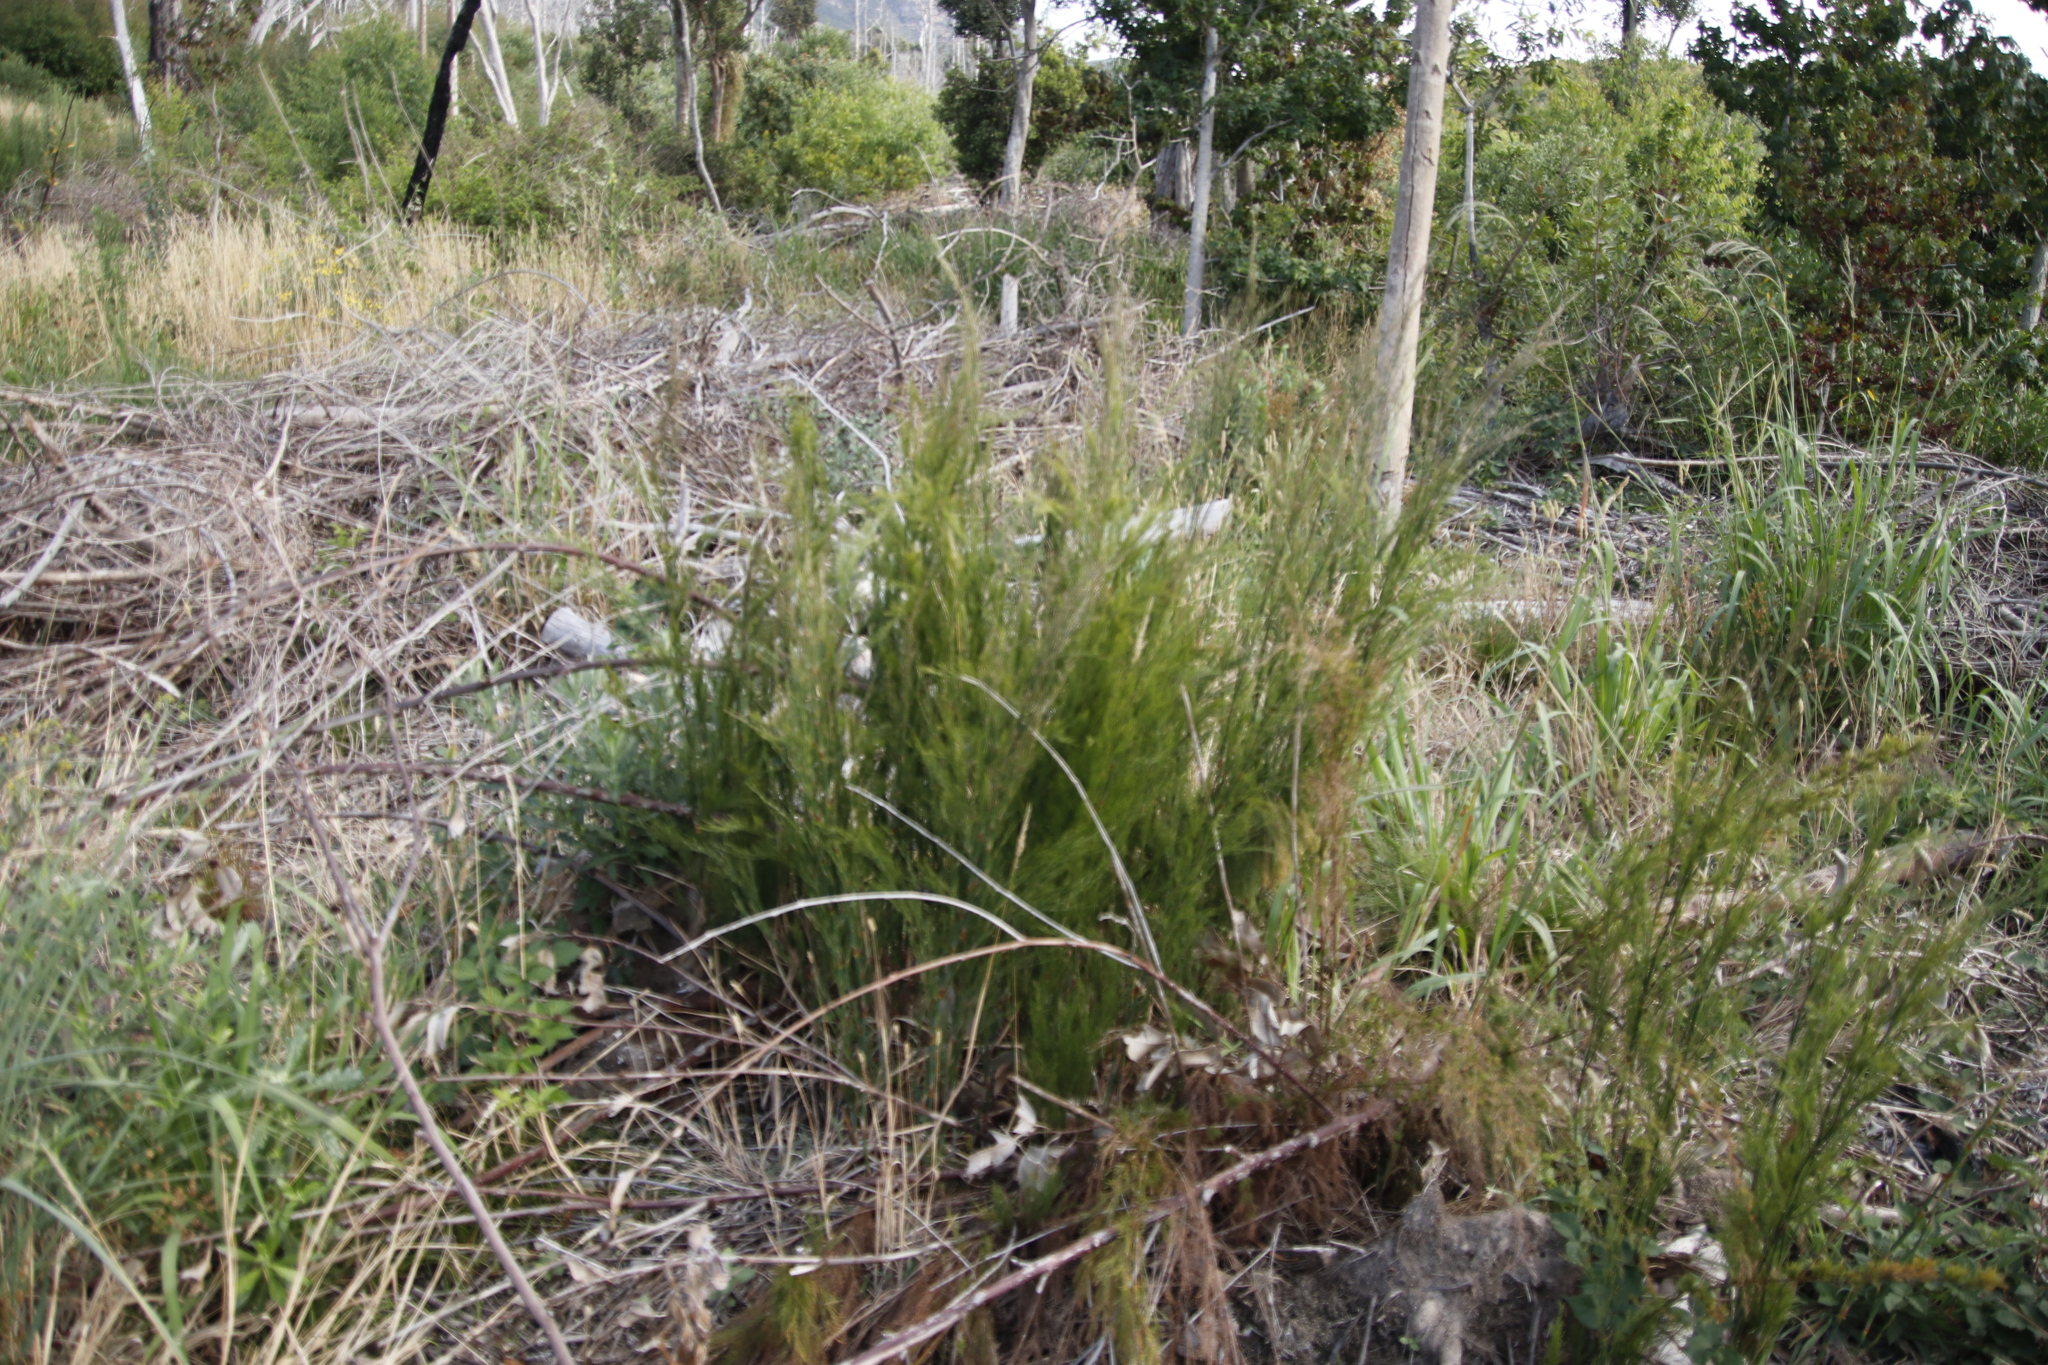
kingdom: Plantae
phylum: Tracheophyta
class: Liliopsida
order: Poales
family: Restionaceae
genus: Restio
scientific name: Restio paniculatus
